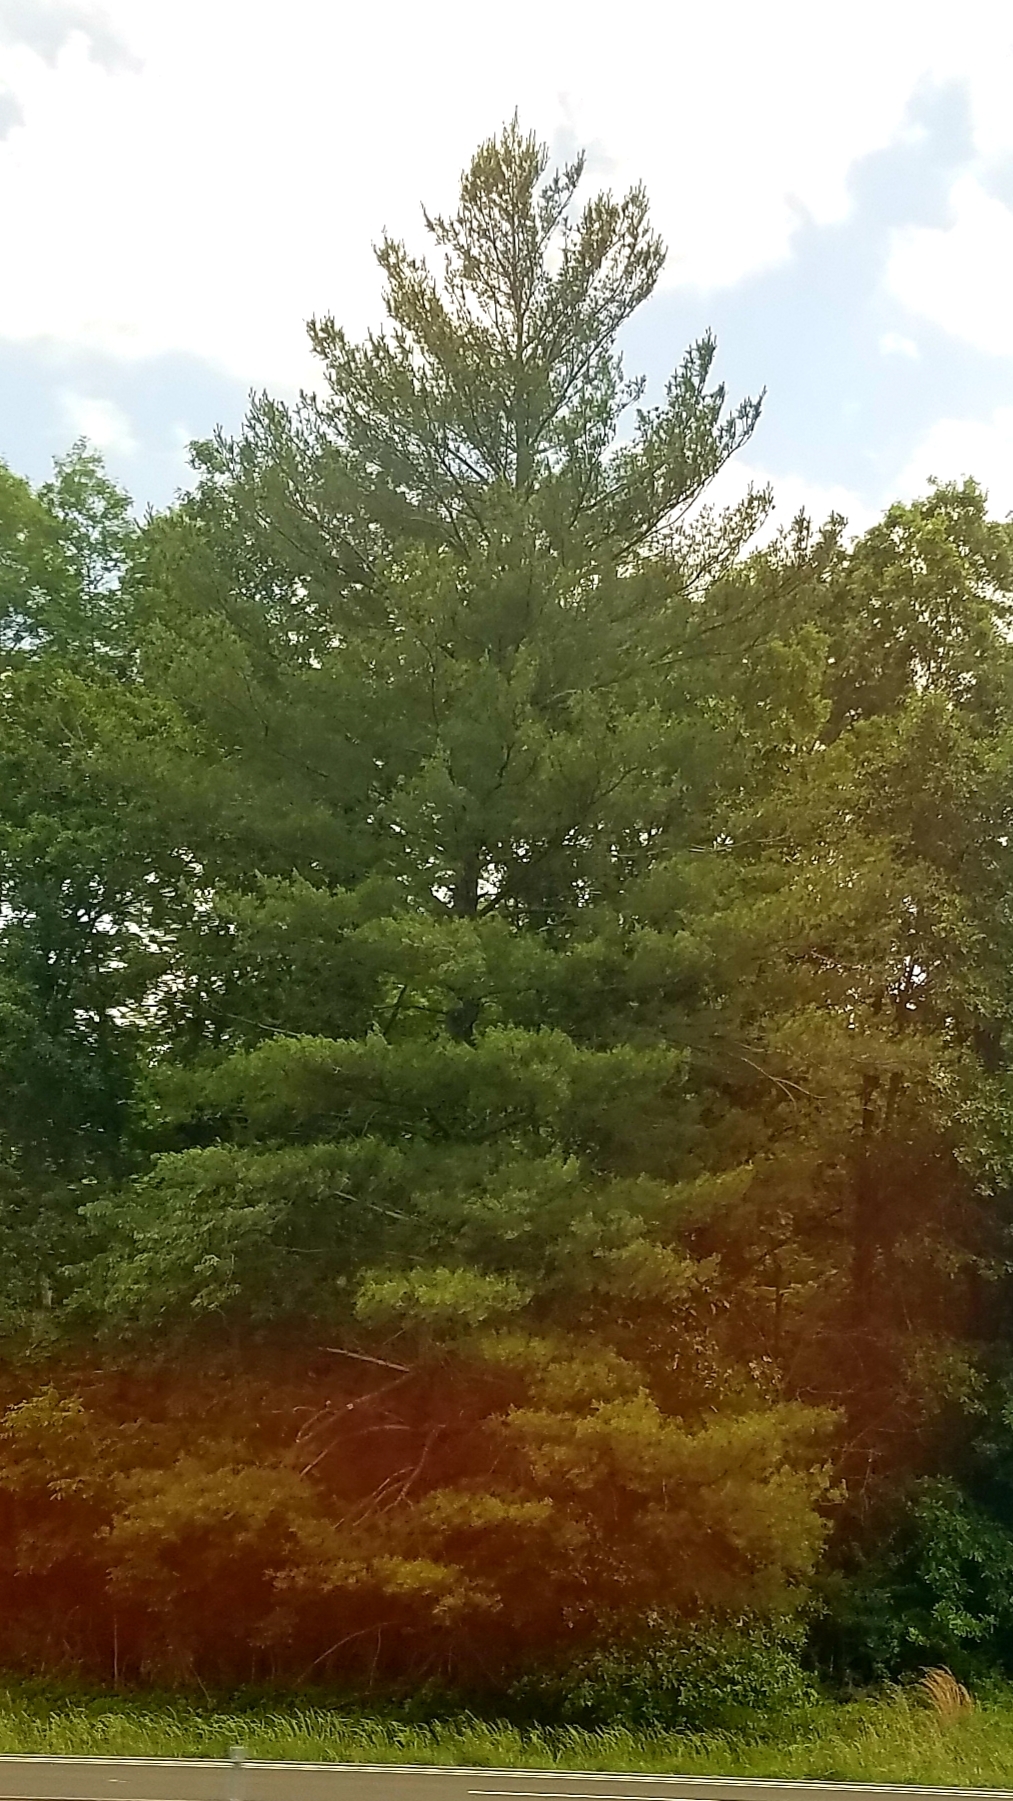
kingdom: Plantae
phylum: Tracheophyta
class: Pinopsida
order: Pinales
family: Pinaceae
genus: Pinus
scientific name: Pinus strobus
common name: Weymouth pine
